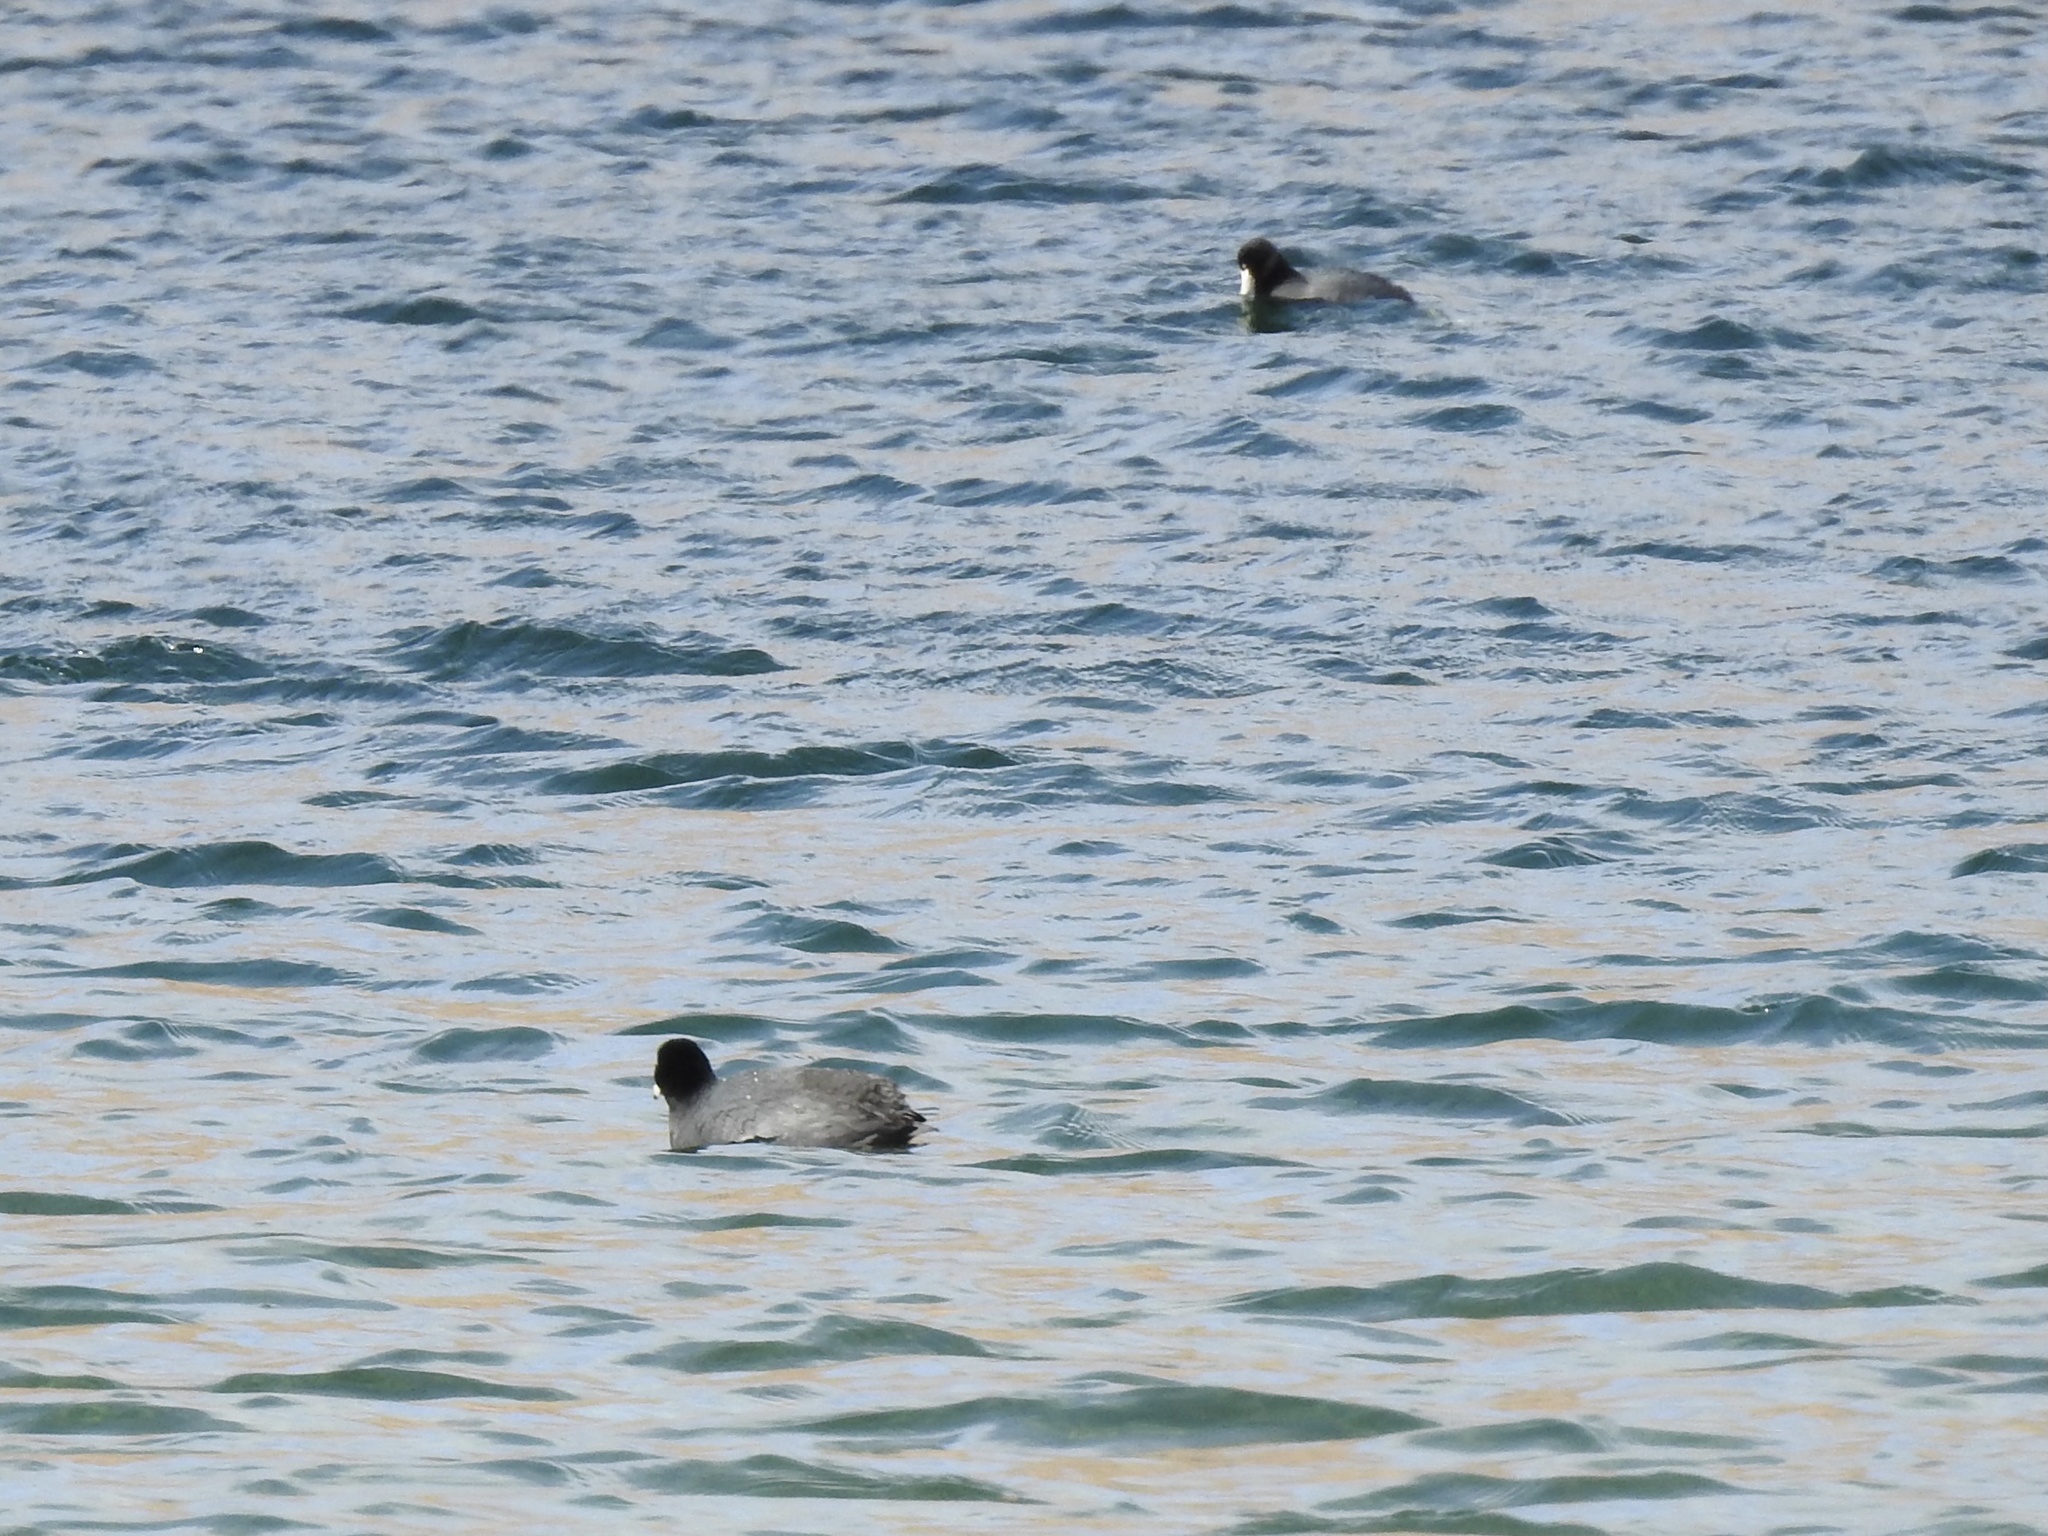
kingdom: Animalia
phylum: Chordata
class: Aves
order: Gruiformes
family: Rallidae
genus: Fulica
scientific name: Fulica americana
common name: American coot
